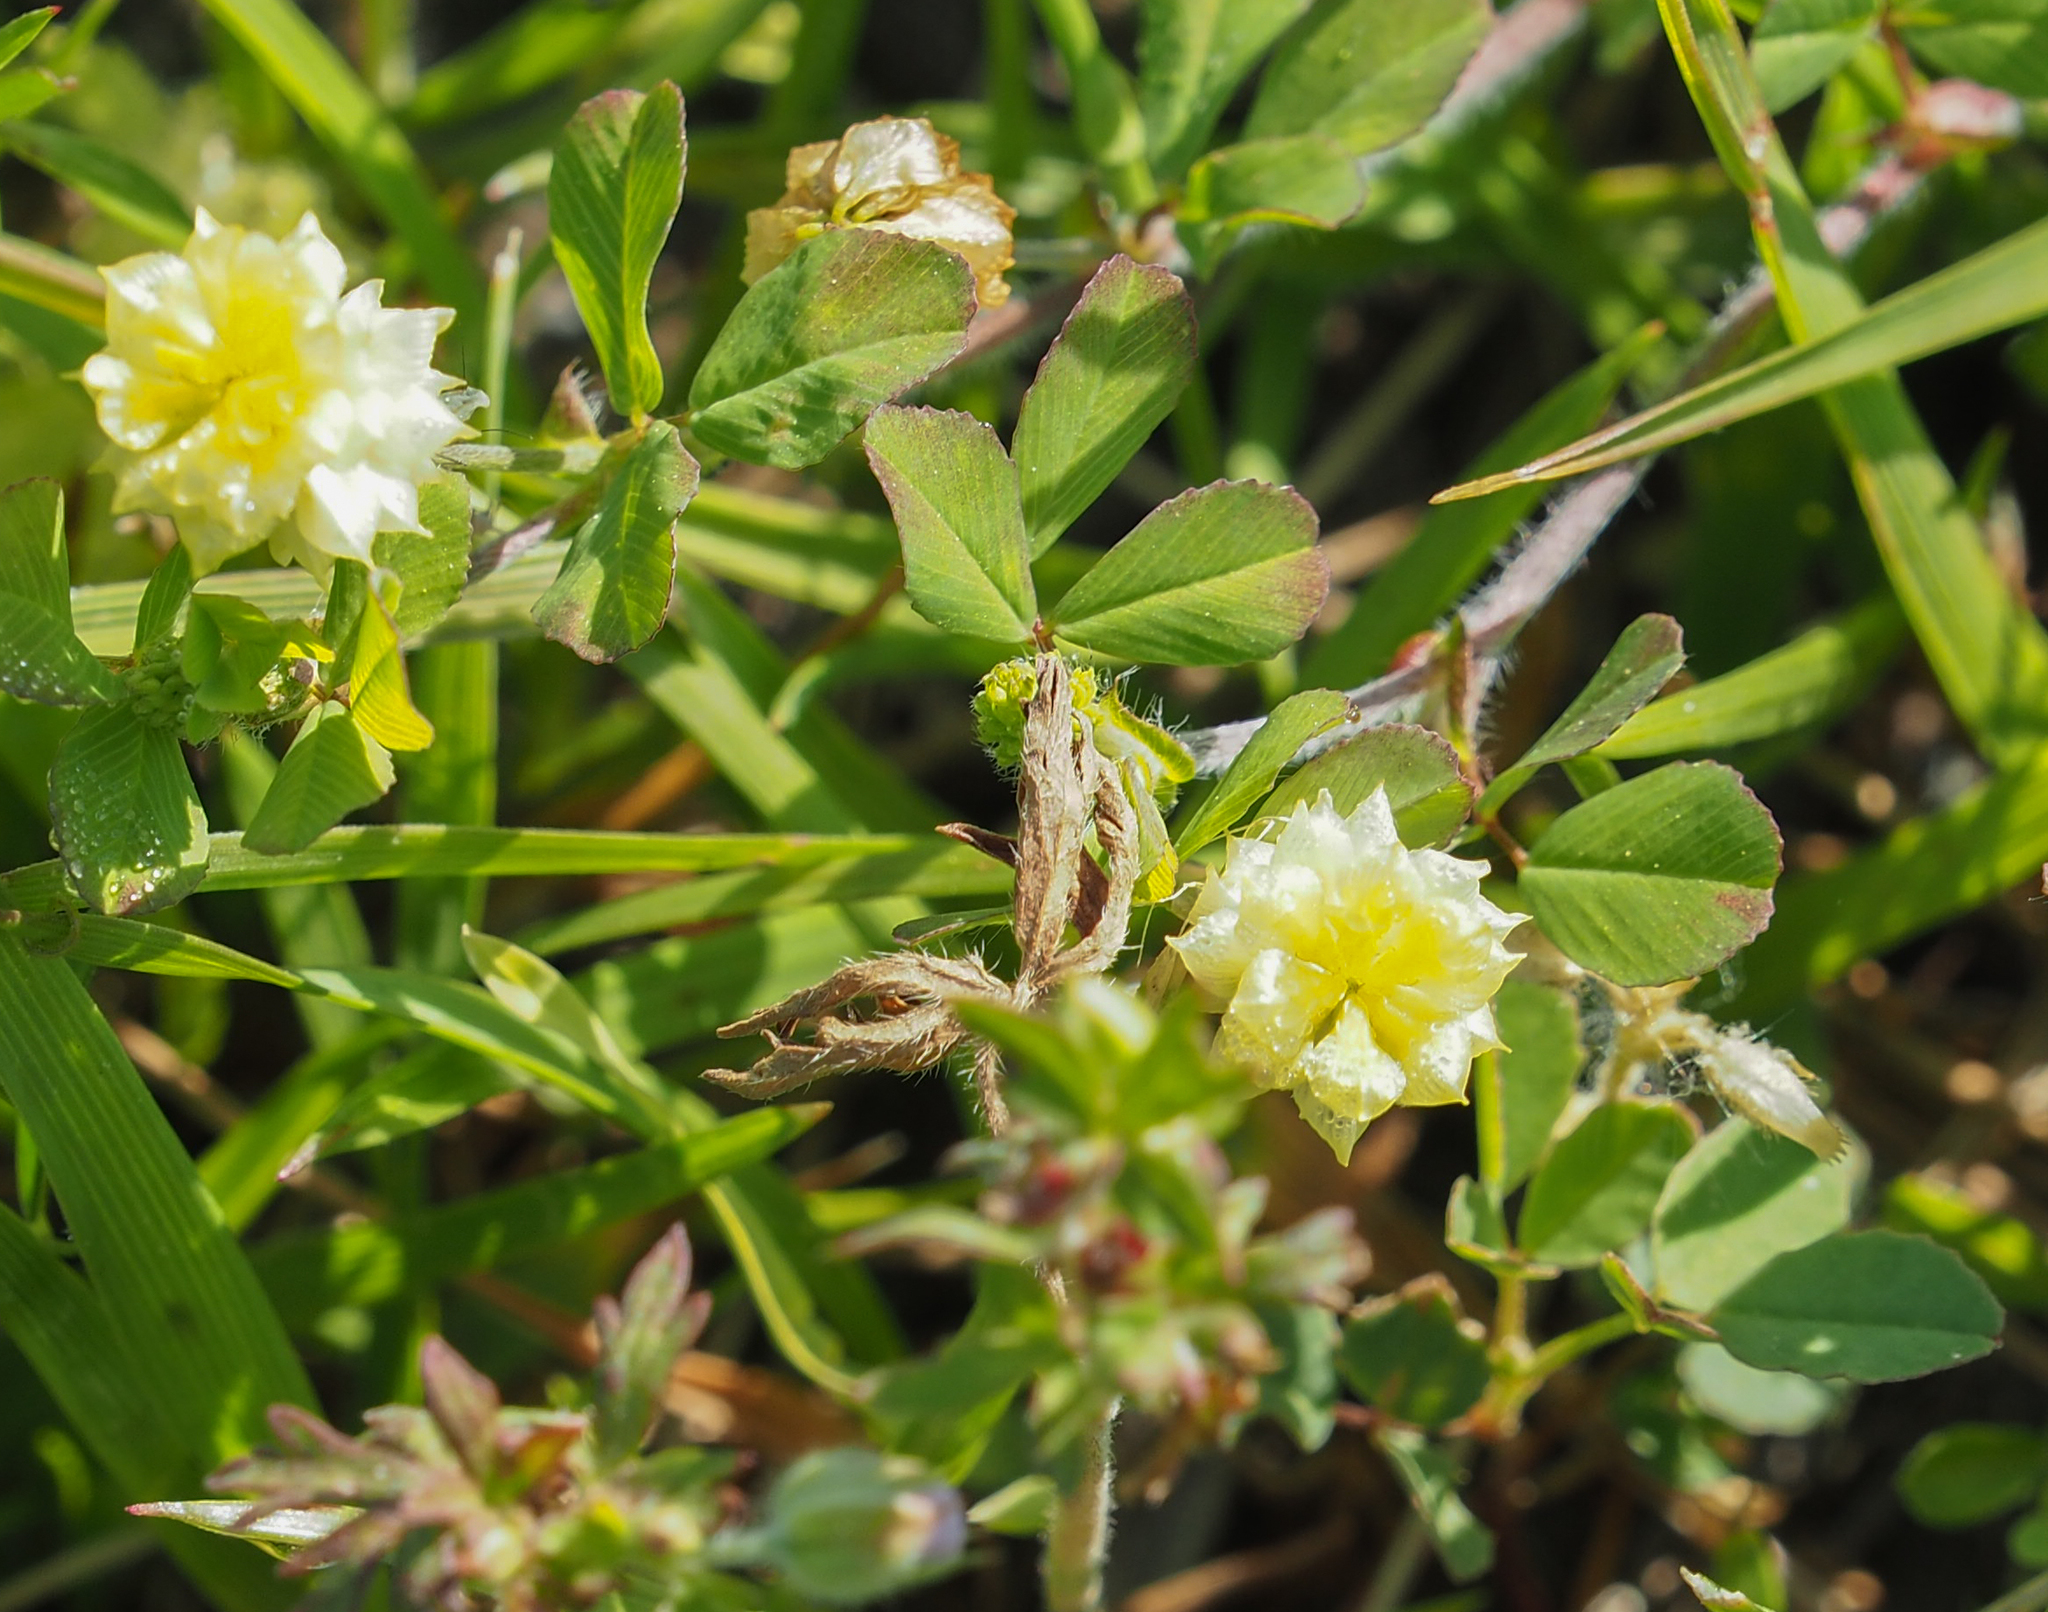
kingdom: Plantae
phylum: Tracheophyta
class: Magnoliopsida
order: Fabales
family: Fabaceae
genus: Trifolium
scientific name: Trifolium campestre
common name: Field clover
